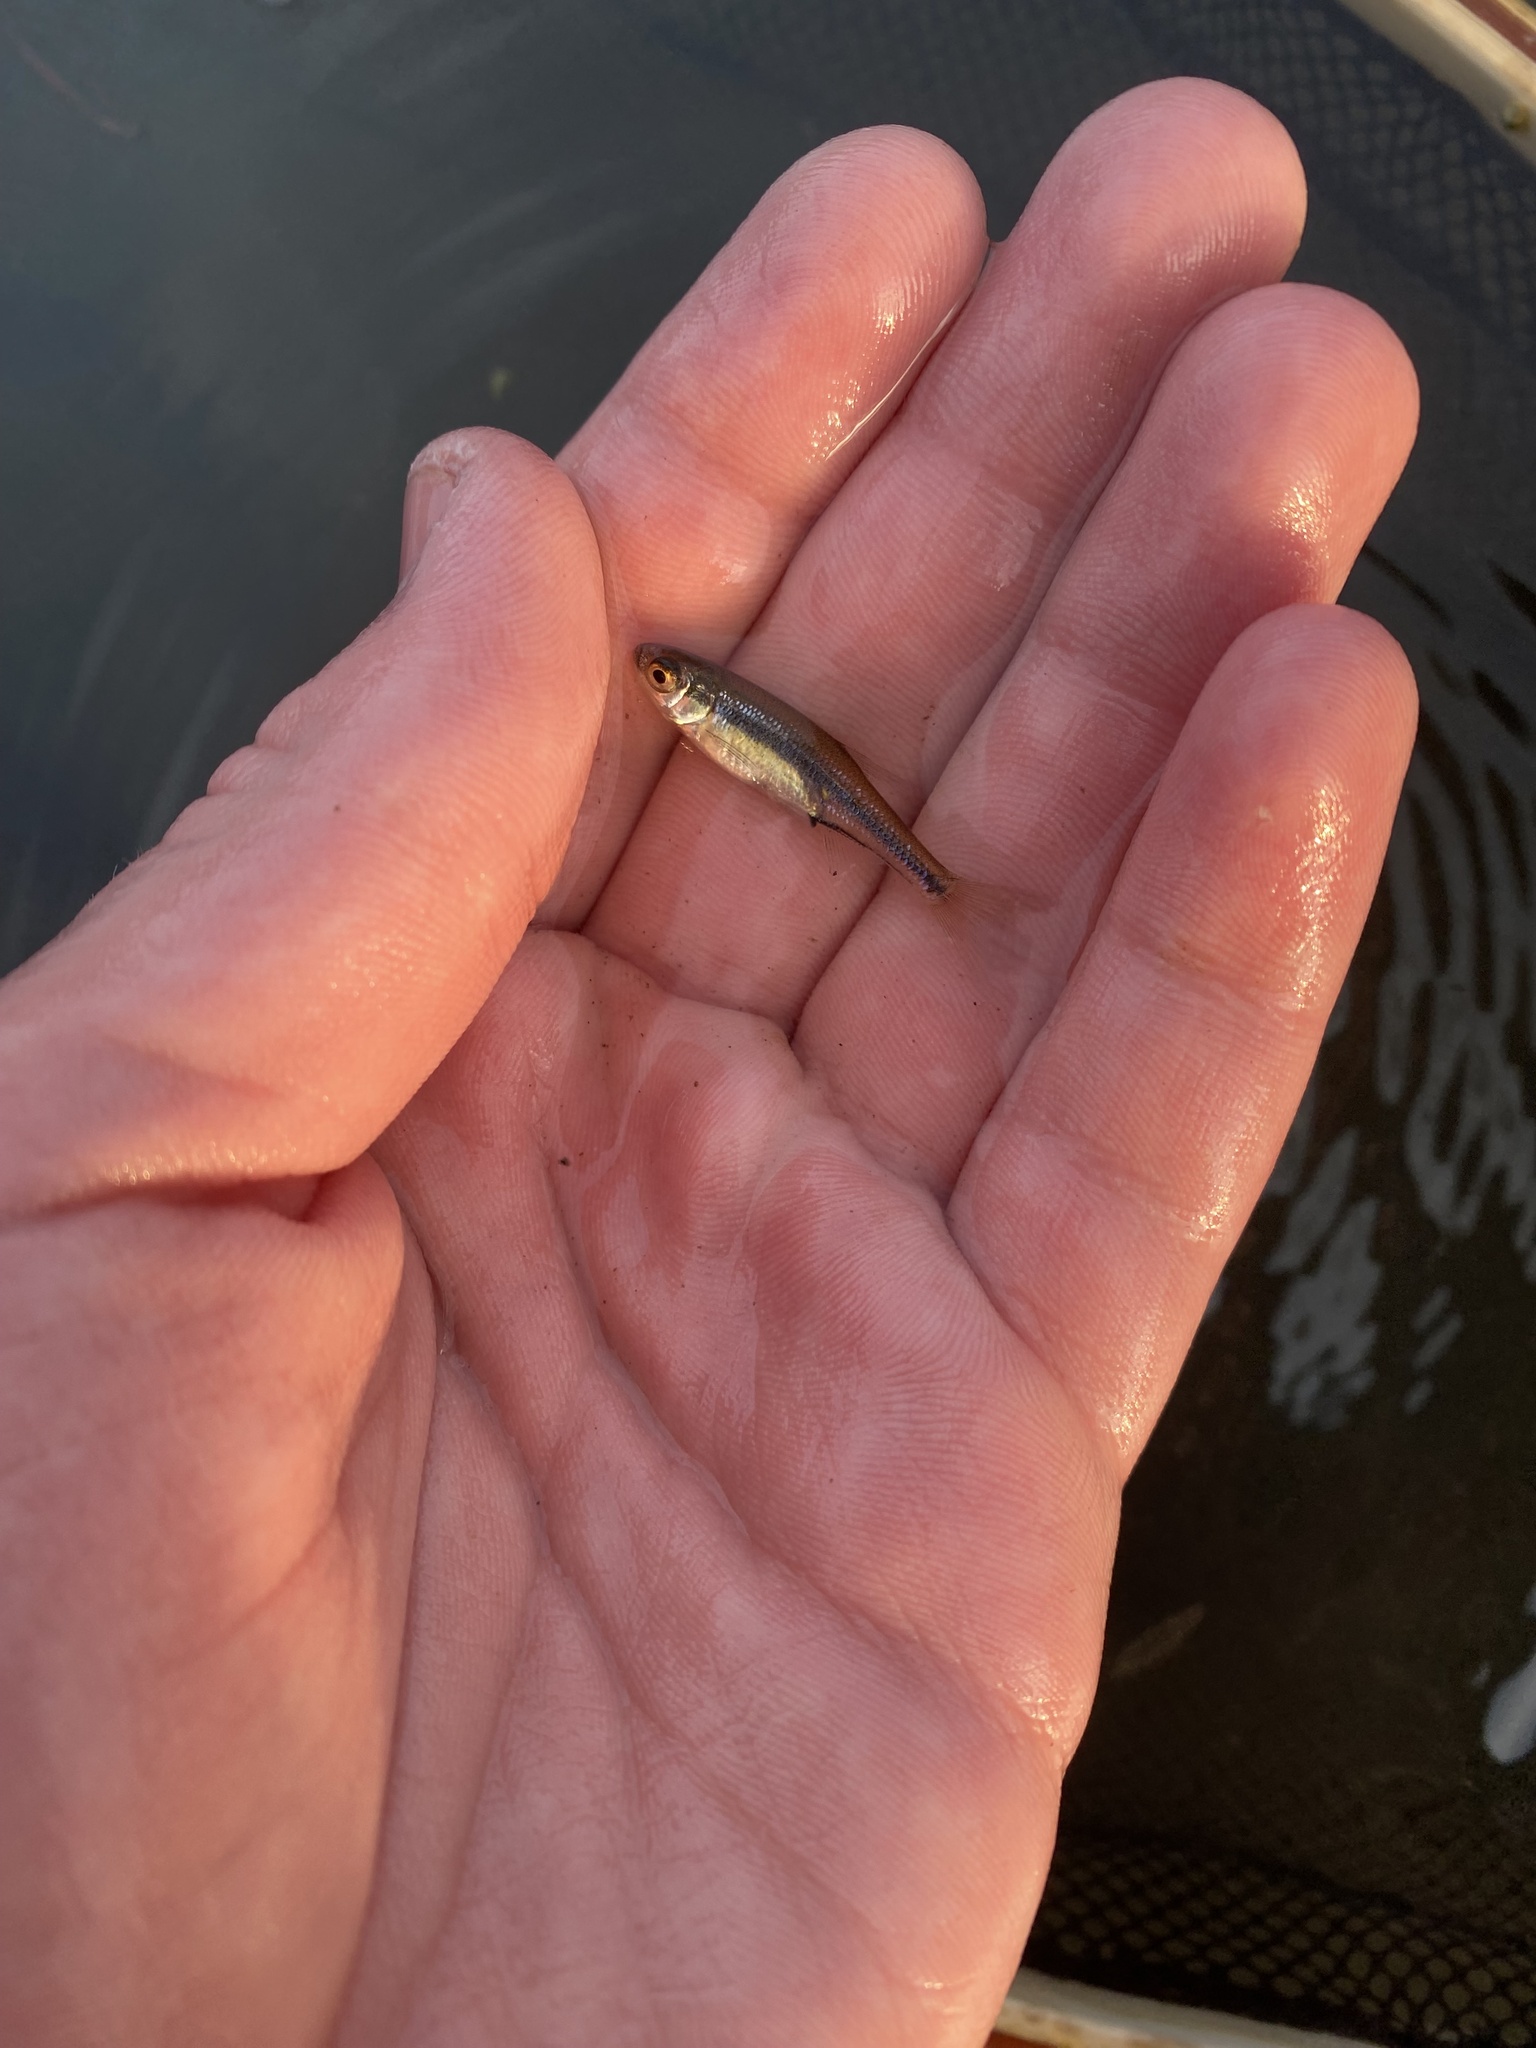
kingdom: Animalia
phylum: Chordata
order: Cypriniformes
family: Cyprinidae
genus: Notemigonus
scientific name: Notemigonus crysoleucas
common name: Golden shiner
